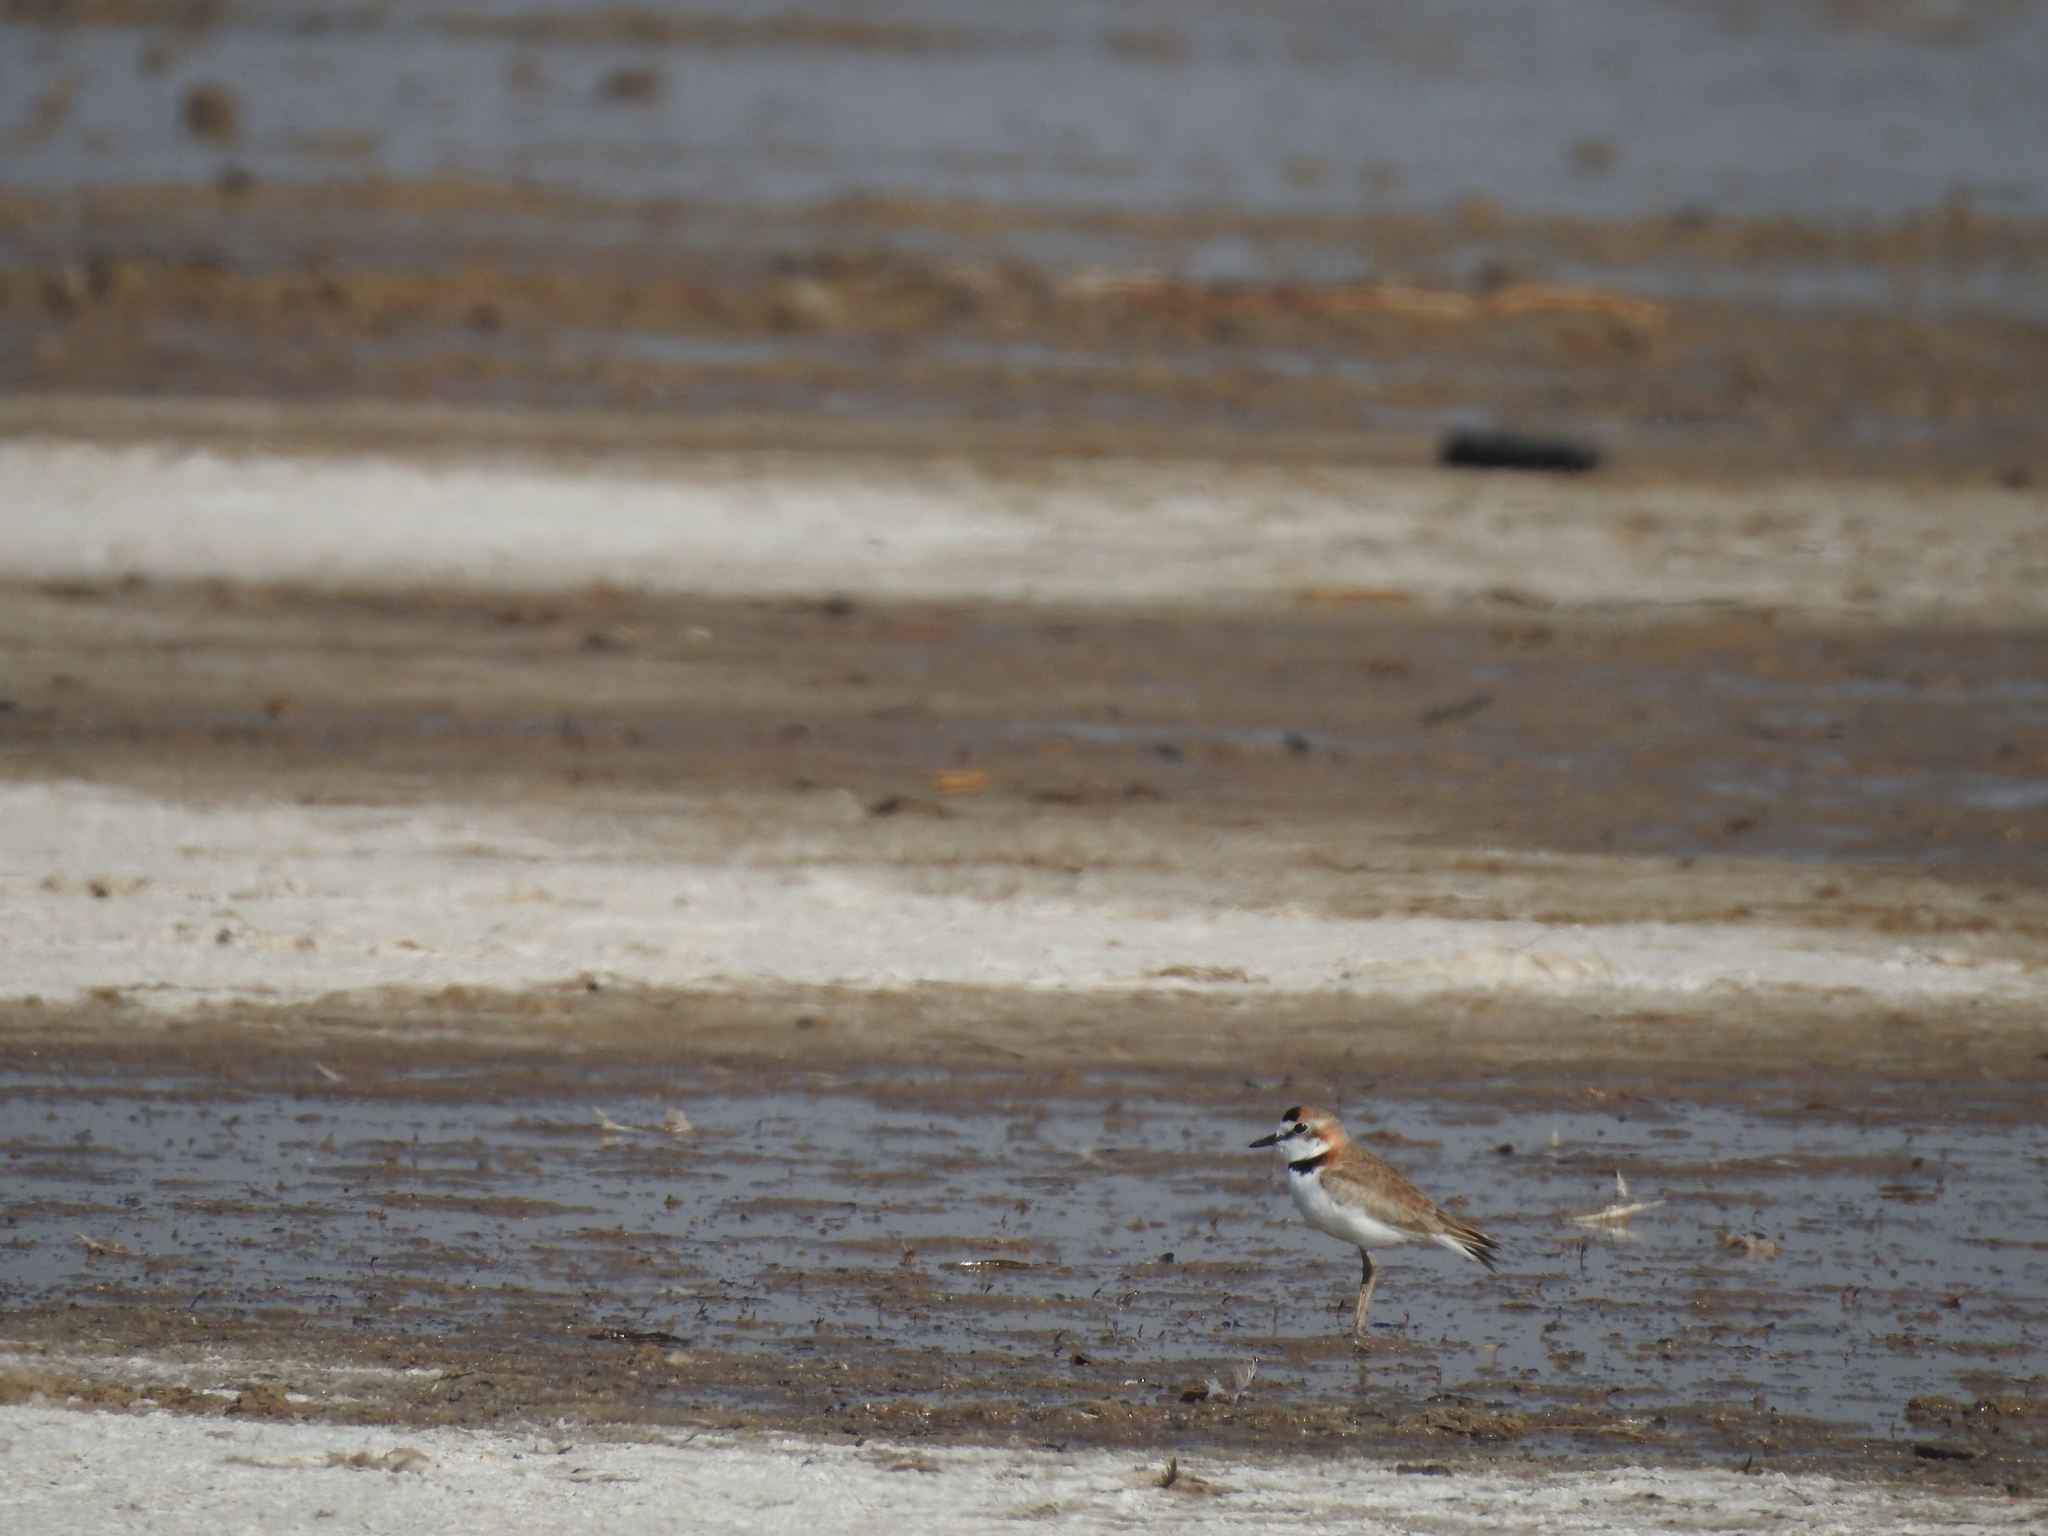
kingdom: Animalia
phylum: Chordata
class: Aves
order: Charadriiformes
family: Charadriidae
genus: Anarhynchus
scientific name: Anarhynchus
